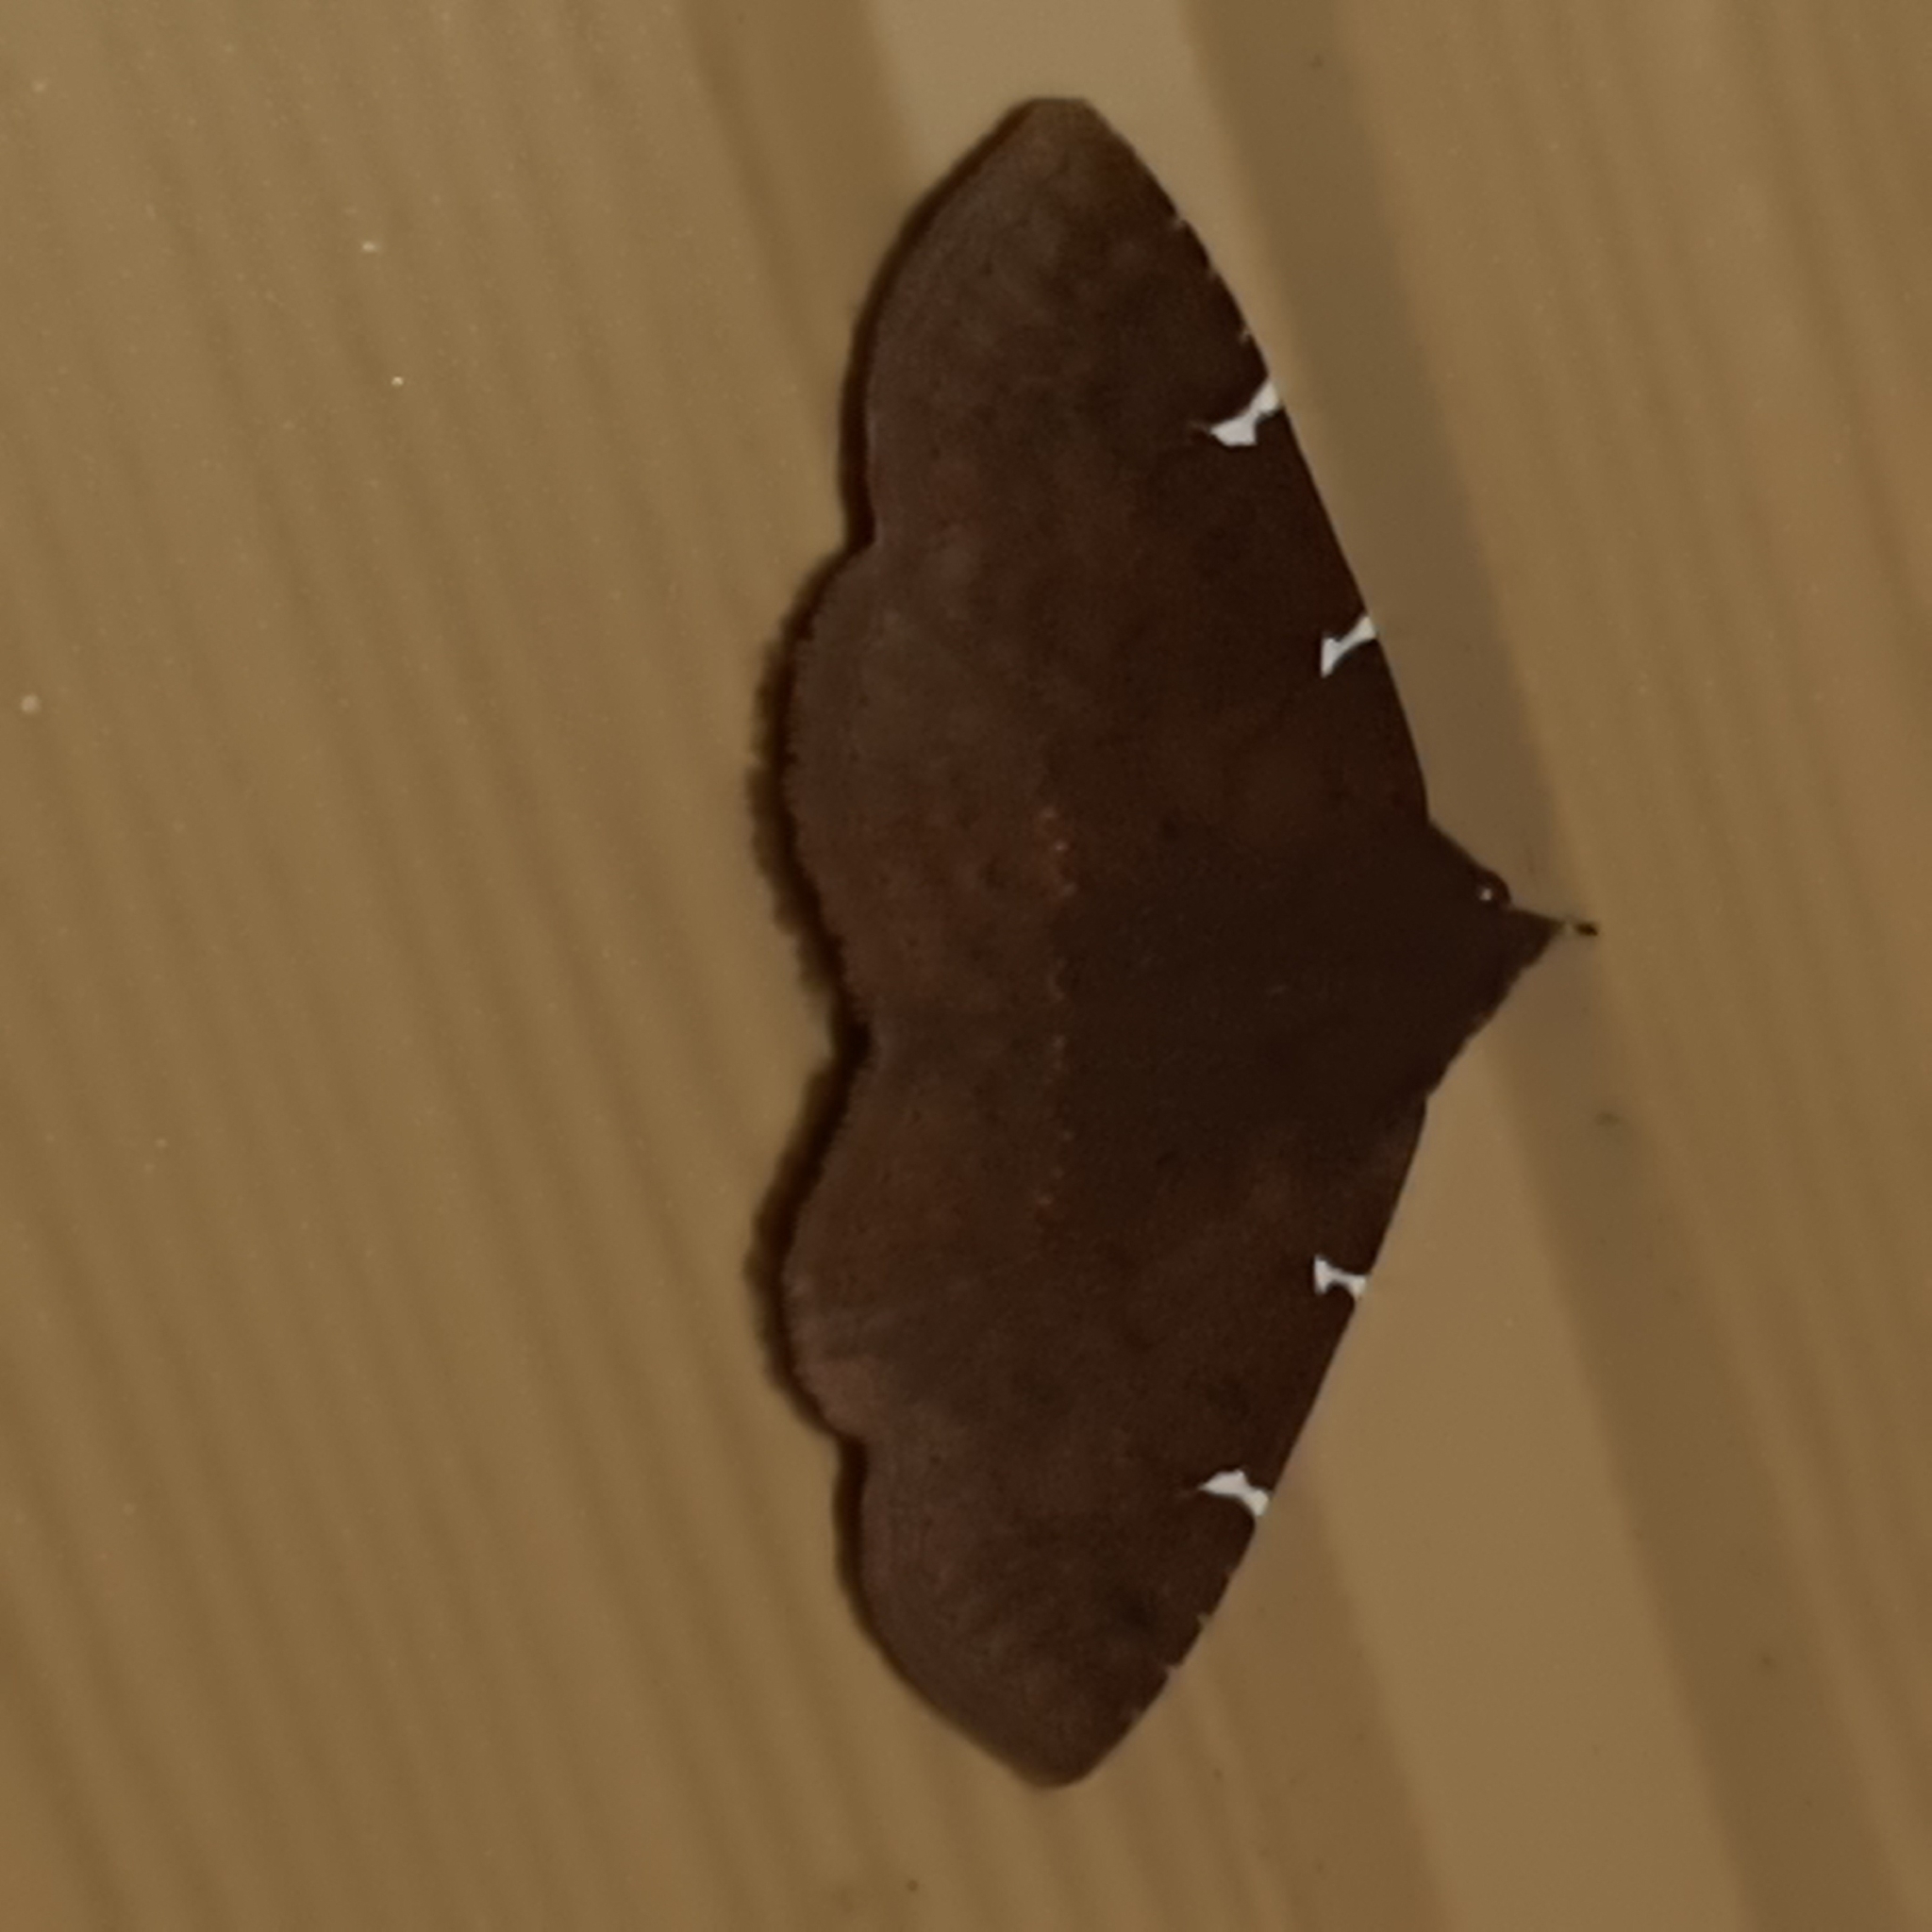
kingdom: Animalia
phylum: Arthropoda
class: Insecta
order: Lepidoptera
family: Erebidae
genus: Antiblemma
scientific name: Antiblemma concinnula
